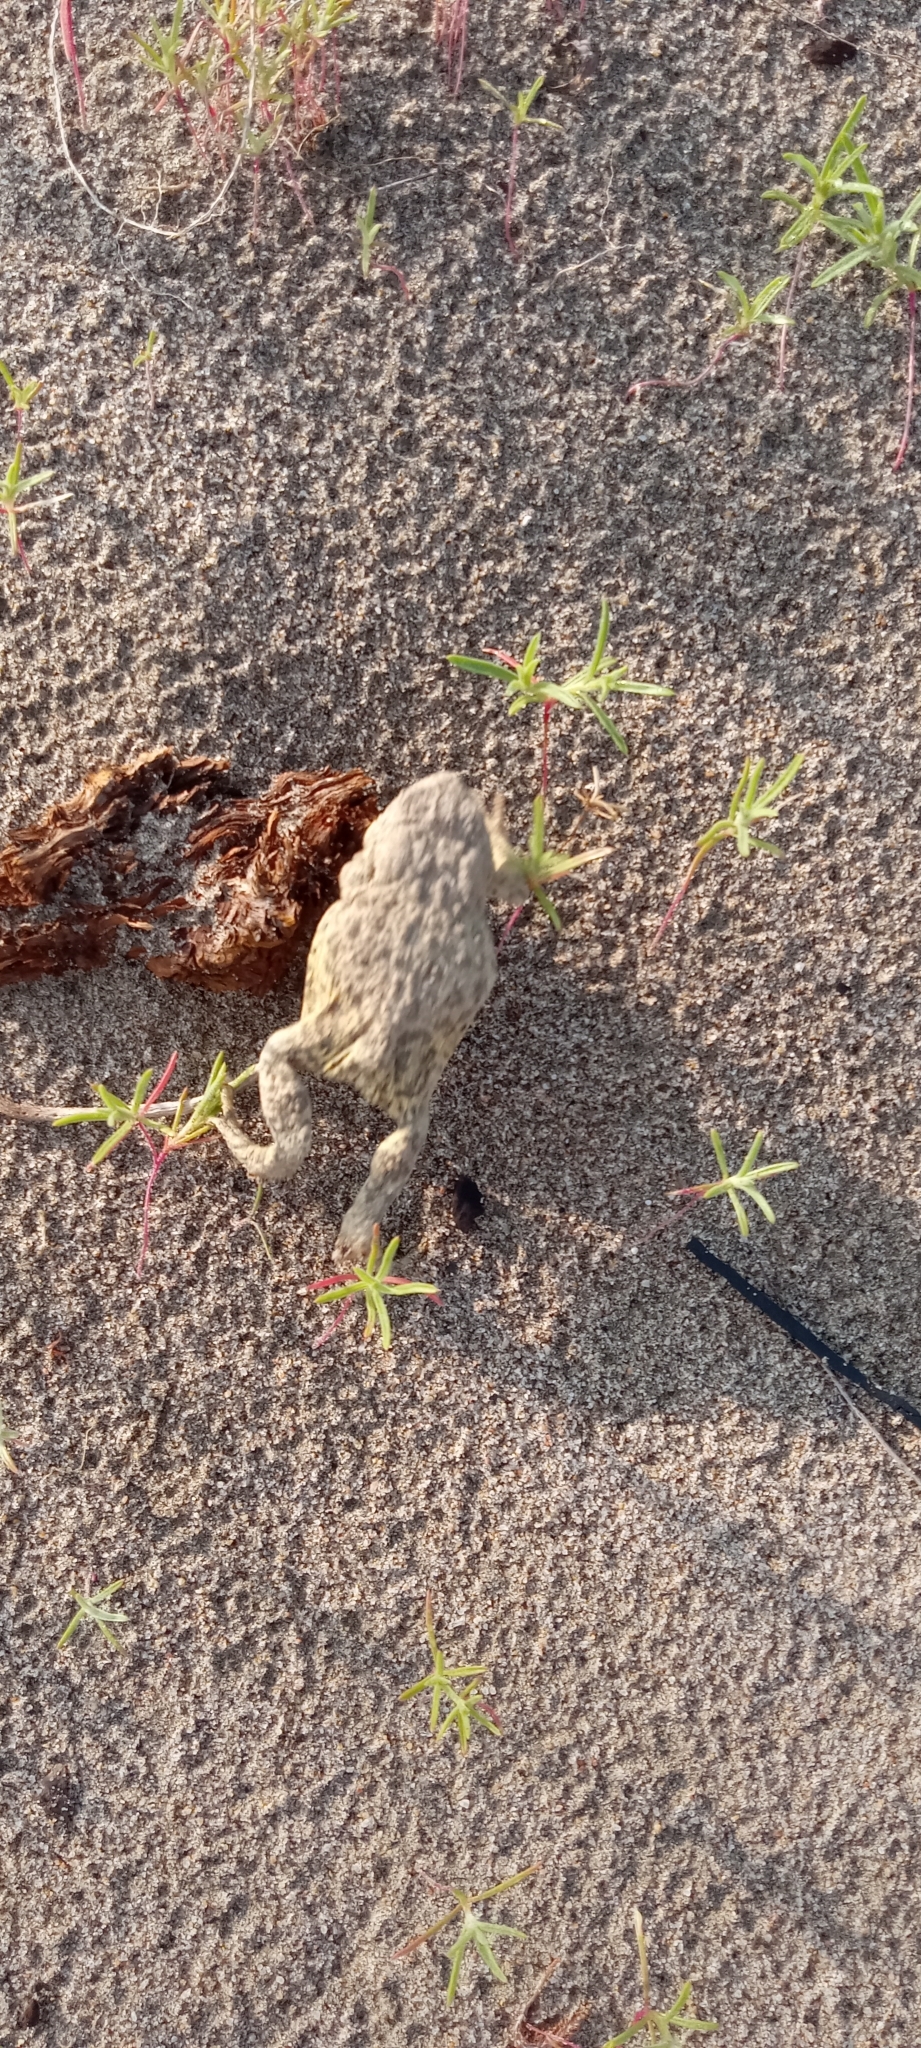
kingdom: Animalia
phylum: Chordata
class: Amphibia
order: Anura
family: Bufonidae
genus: Anaxyrus
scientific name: Anaxyrus hemiophrys
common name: Canadian toad
